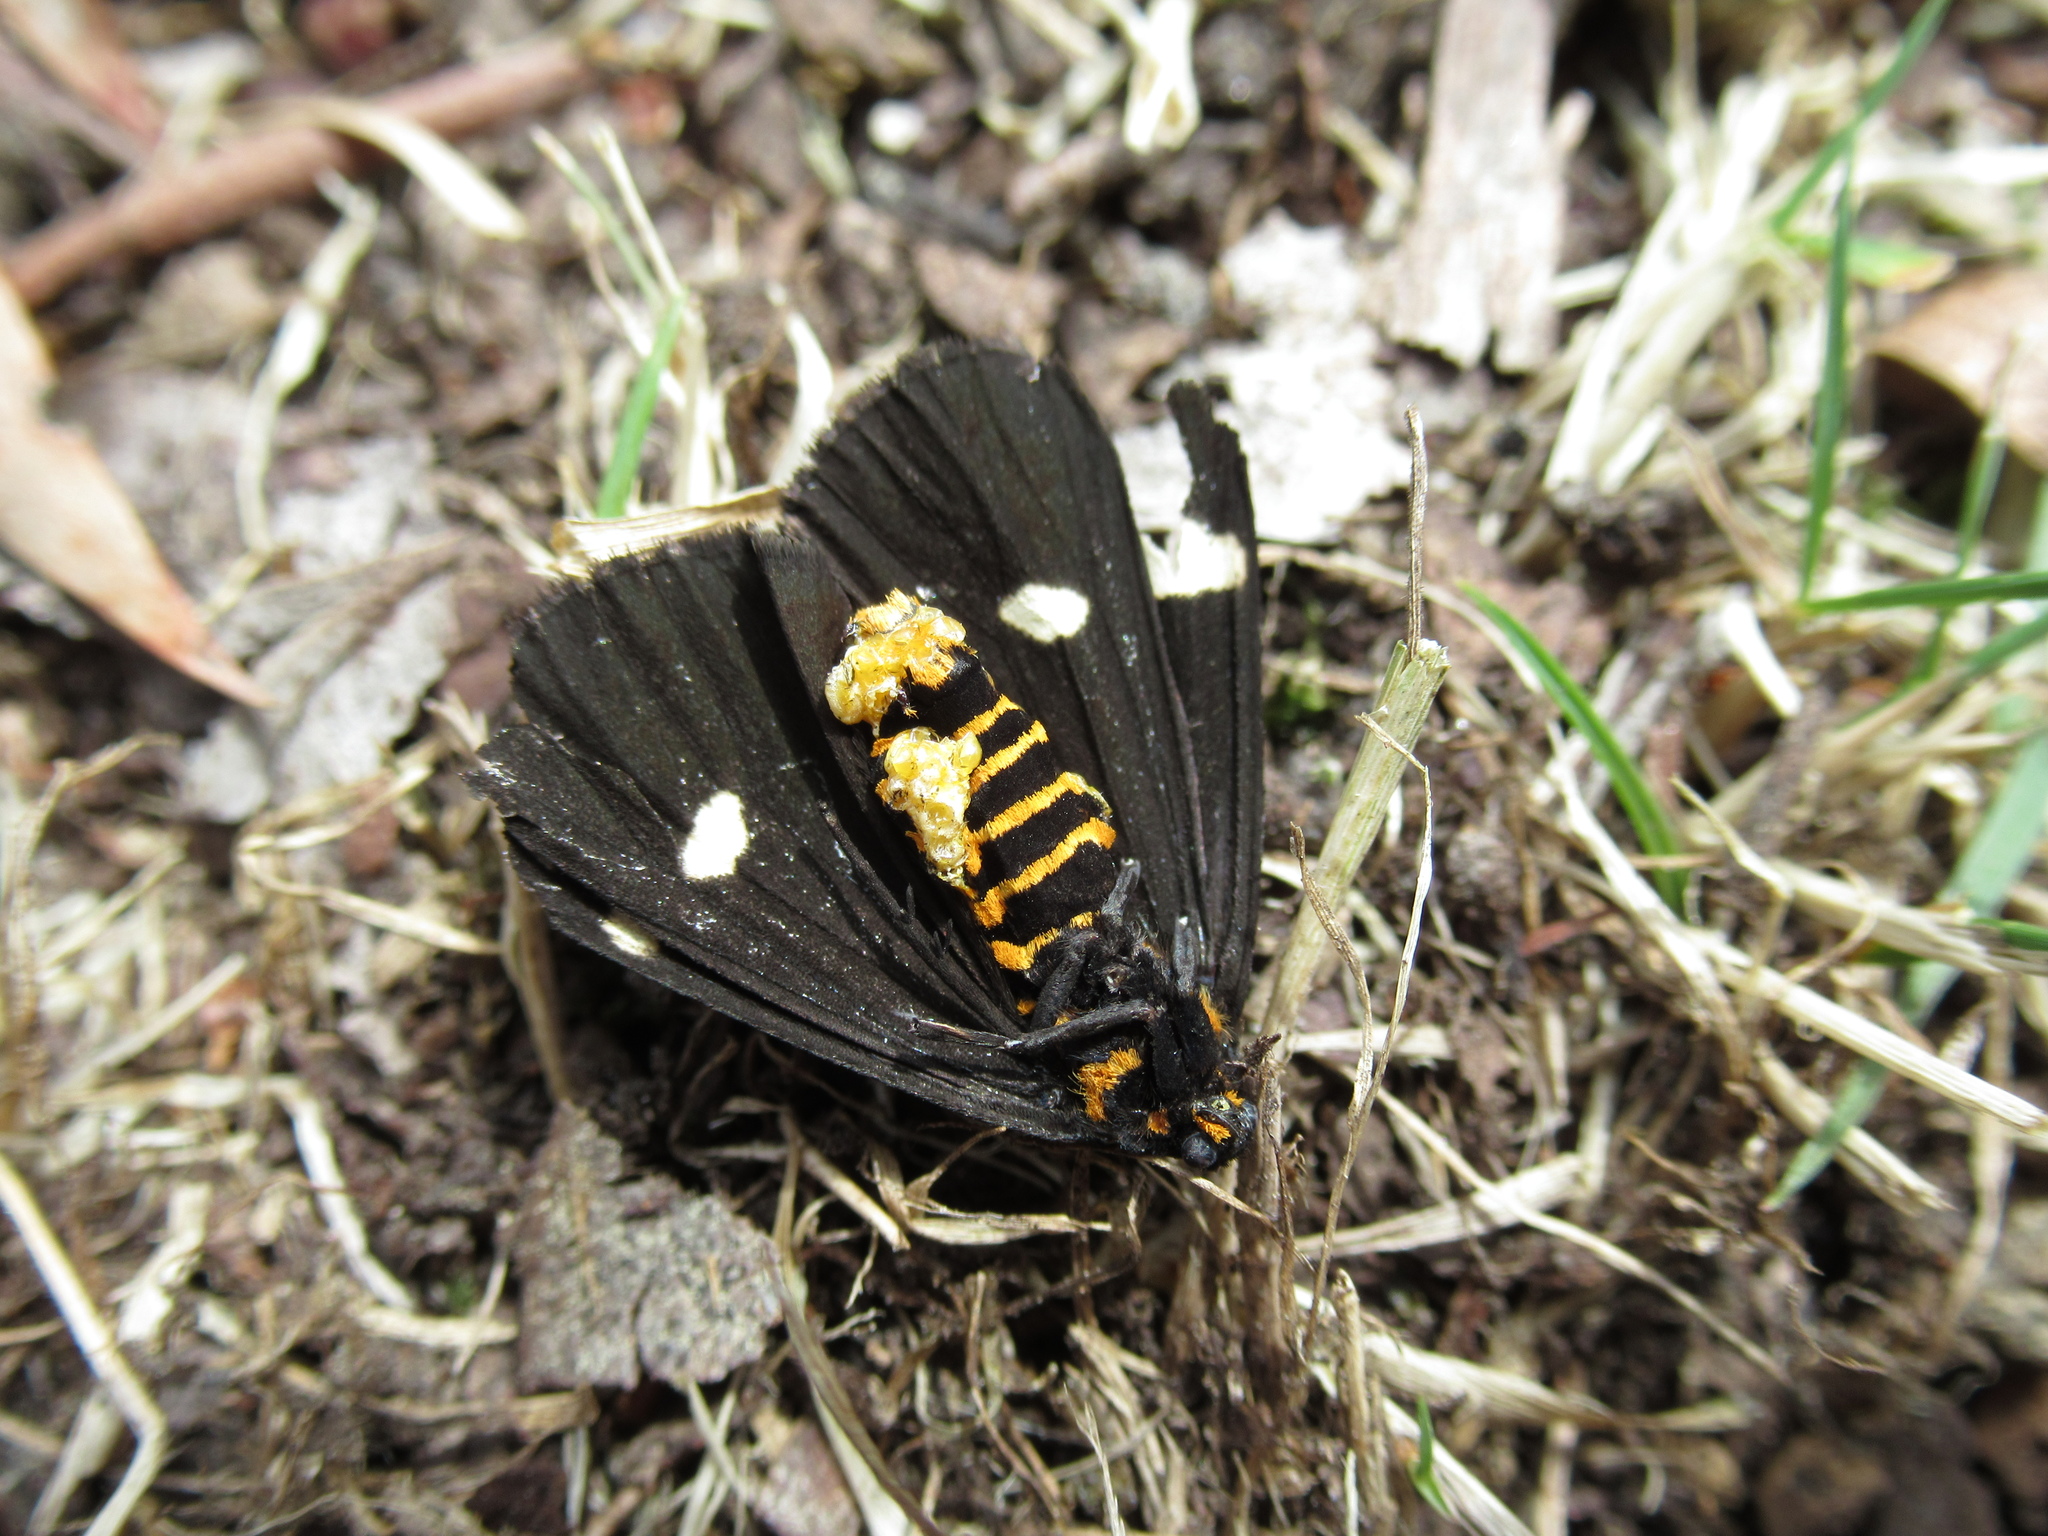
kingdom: Animalia
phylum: Arthropoda
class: Insecta
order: Lepidoptera
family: Erebidae
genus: Nyctemera
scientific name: Nyctemera annulatum
